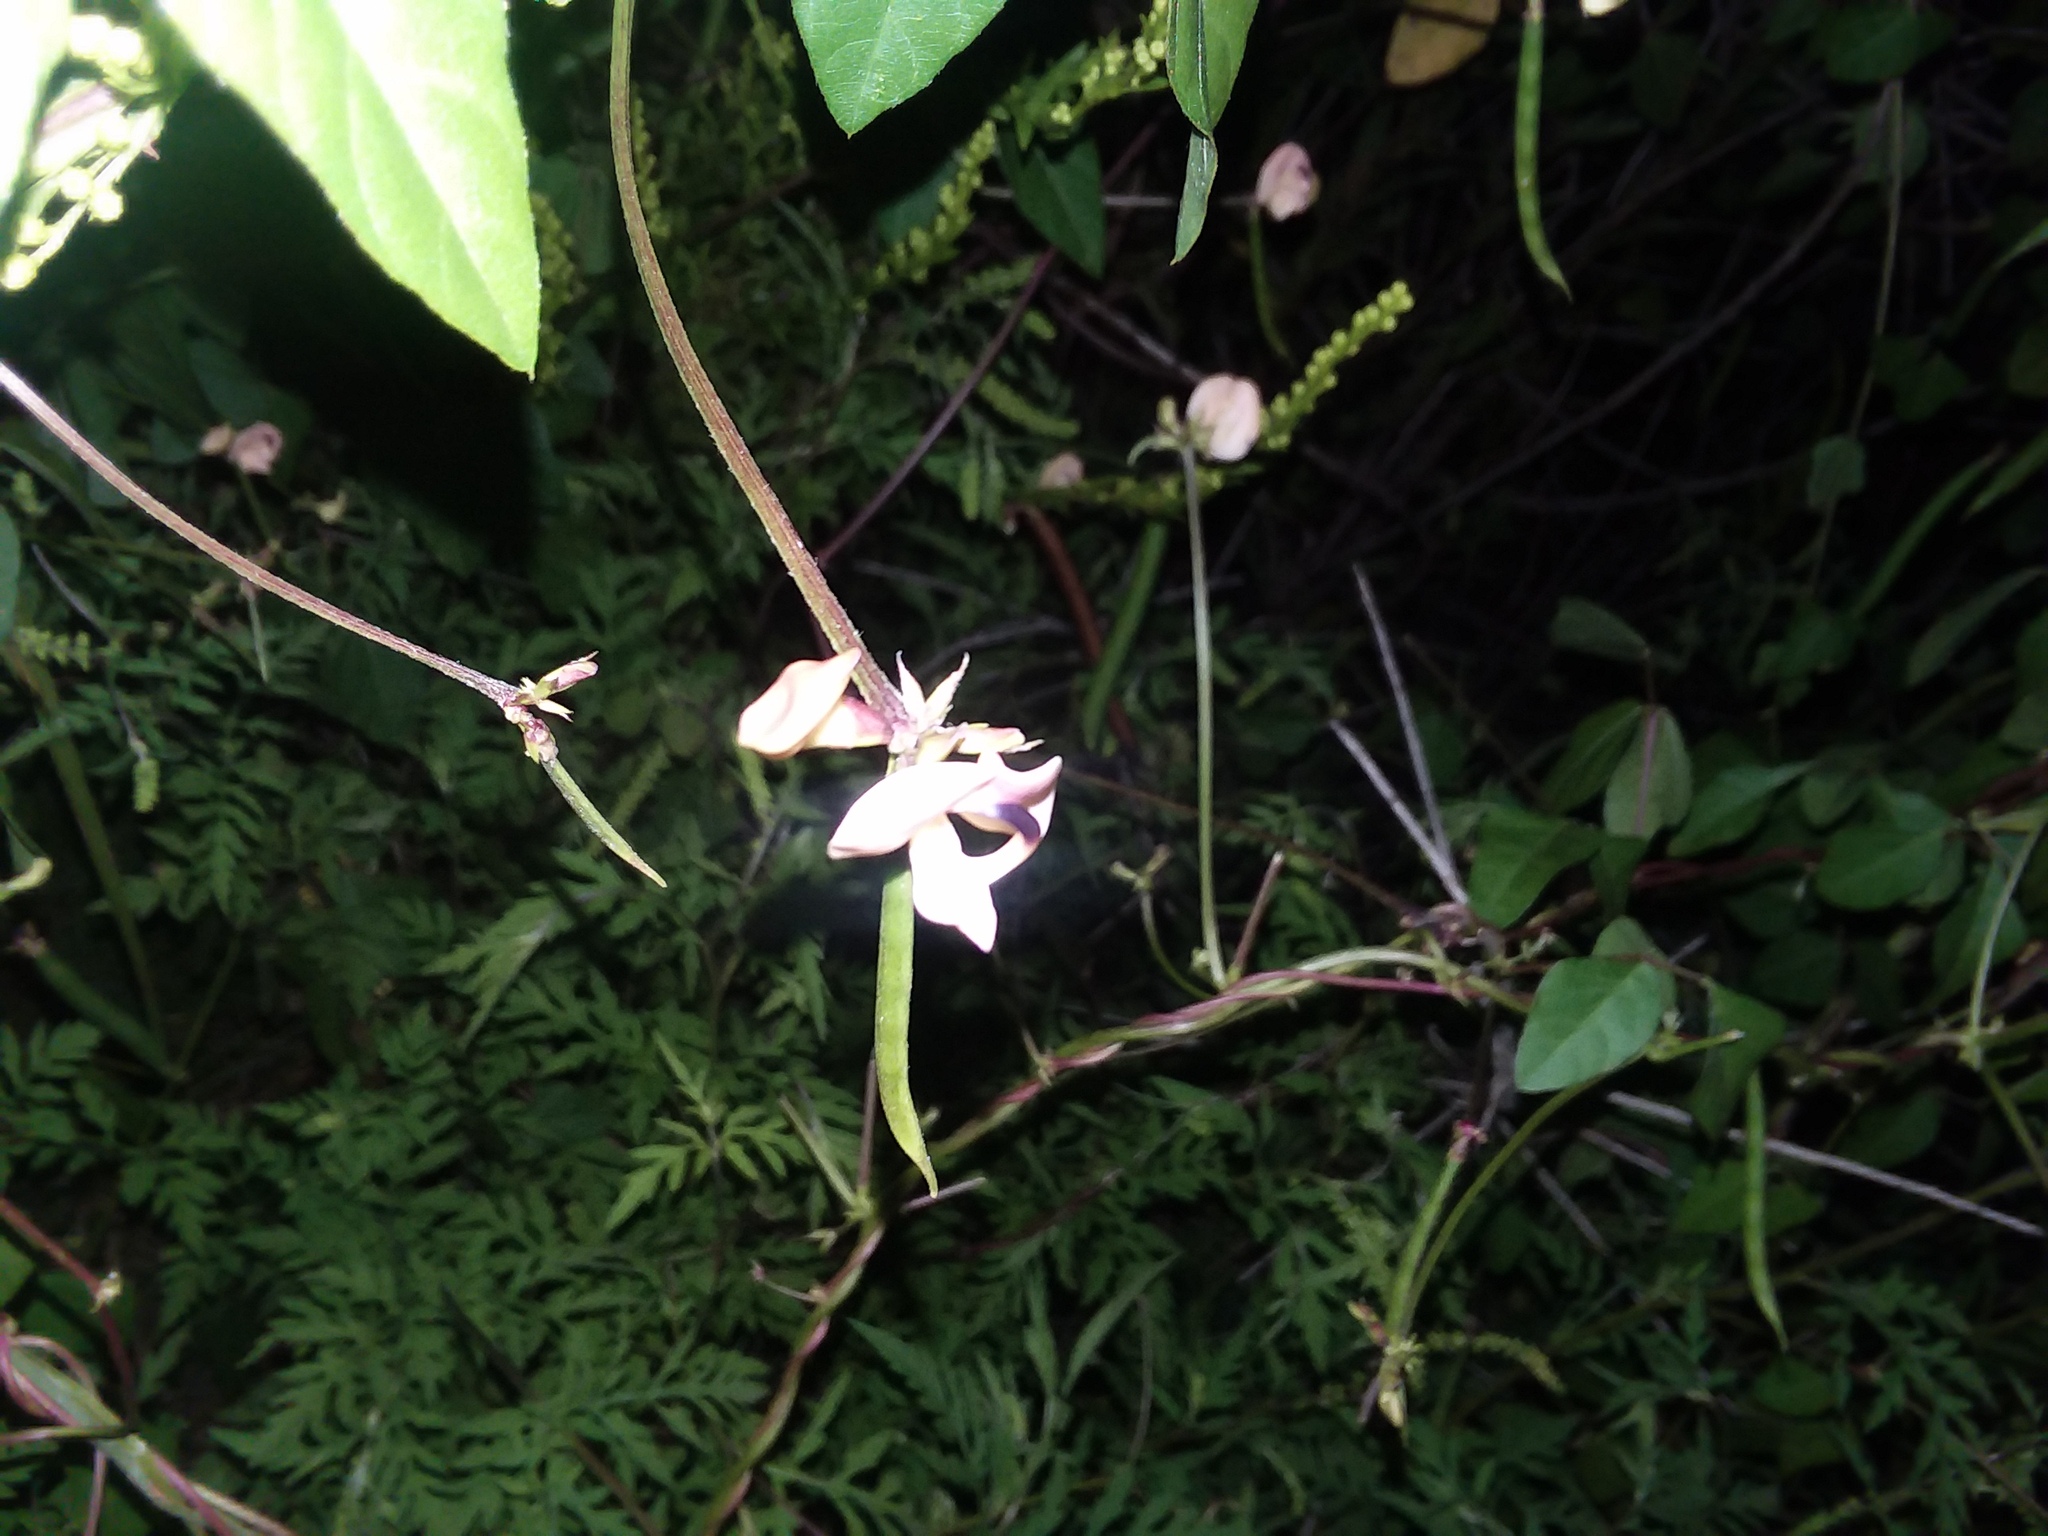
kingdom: Plantae
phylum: Tracheophyta
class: Magnoliopsida
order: Fabales
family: Fabaceae
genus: Strophostyles
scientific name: Strophostyles helvola
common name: Trailing wild bean
